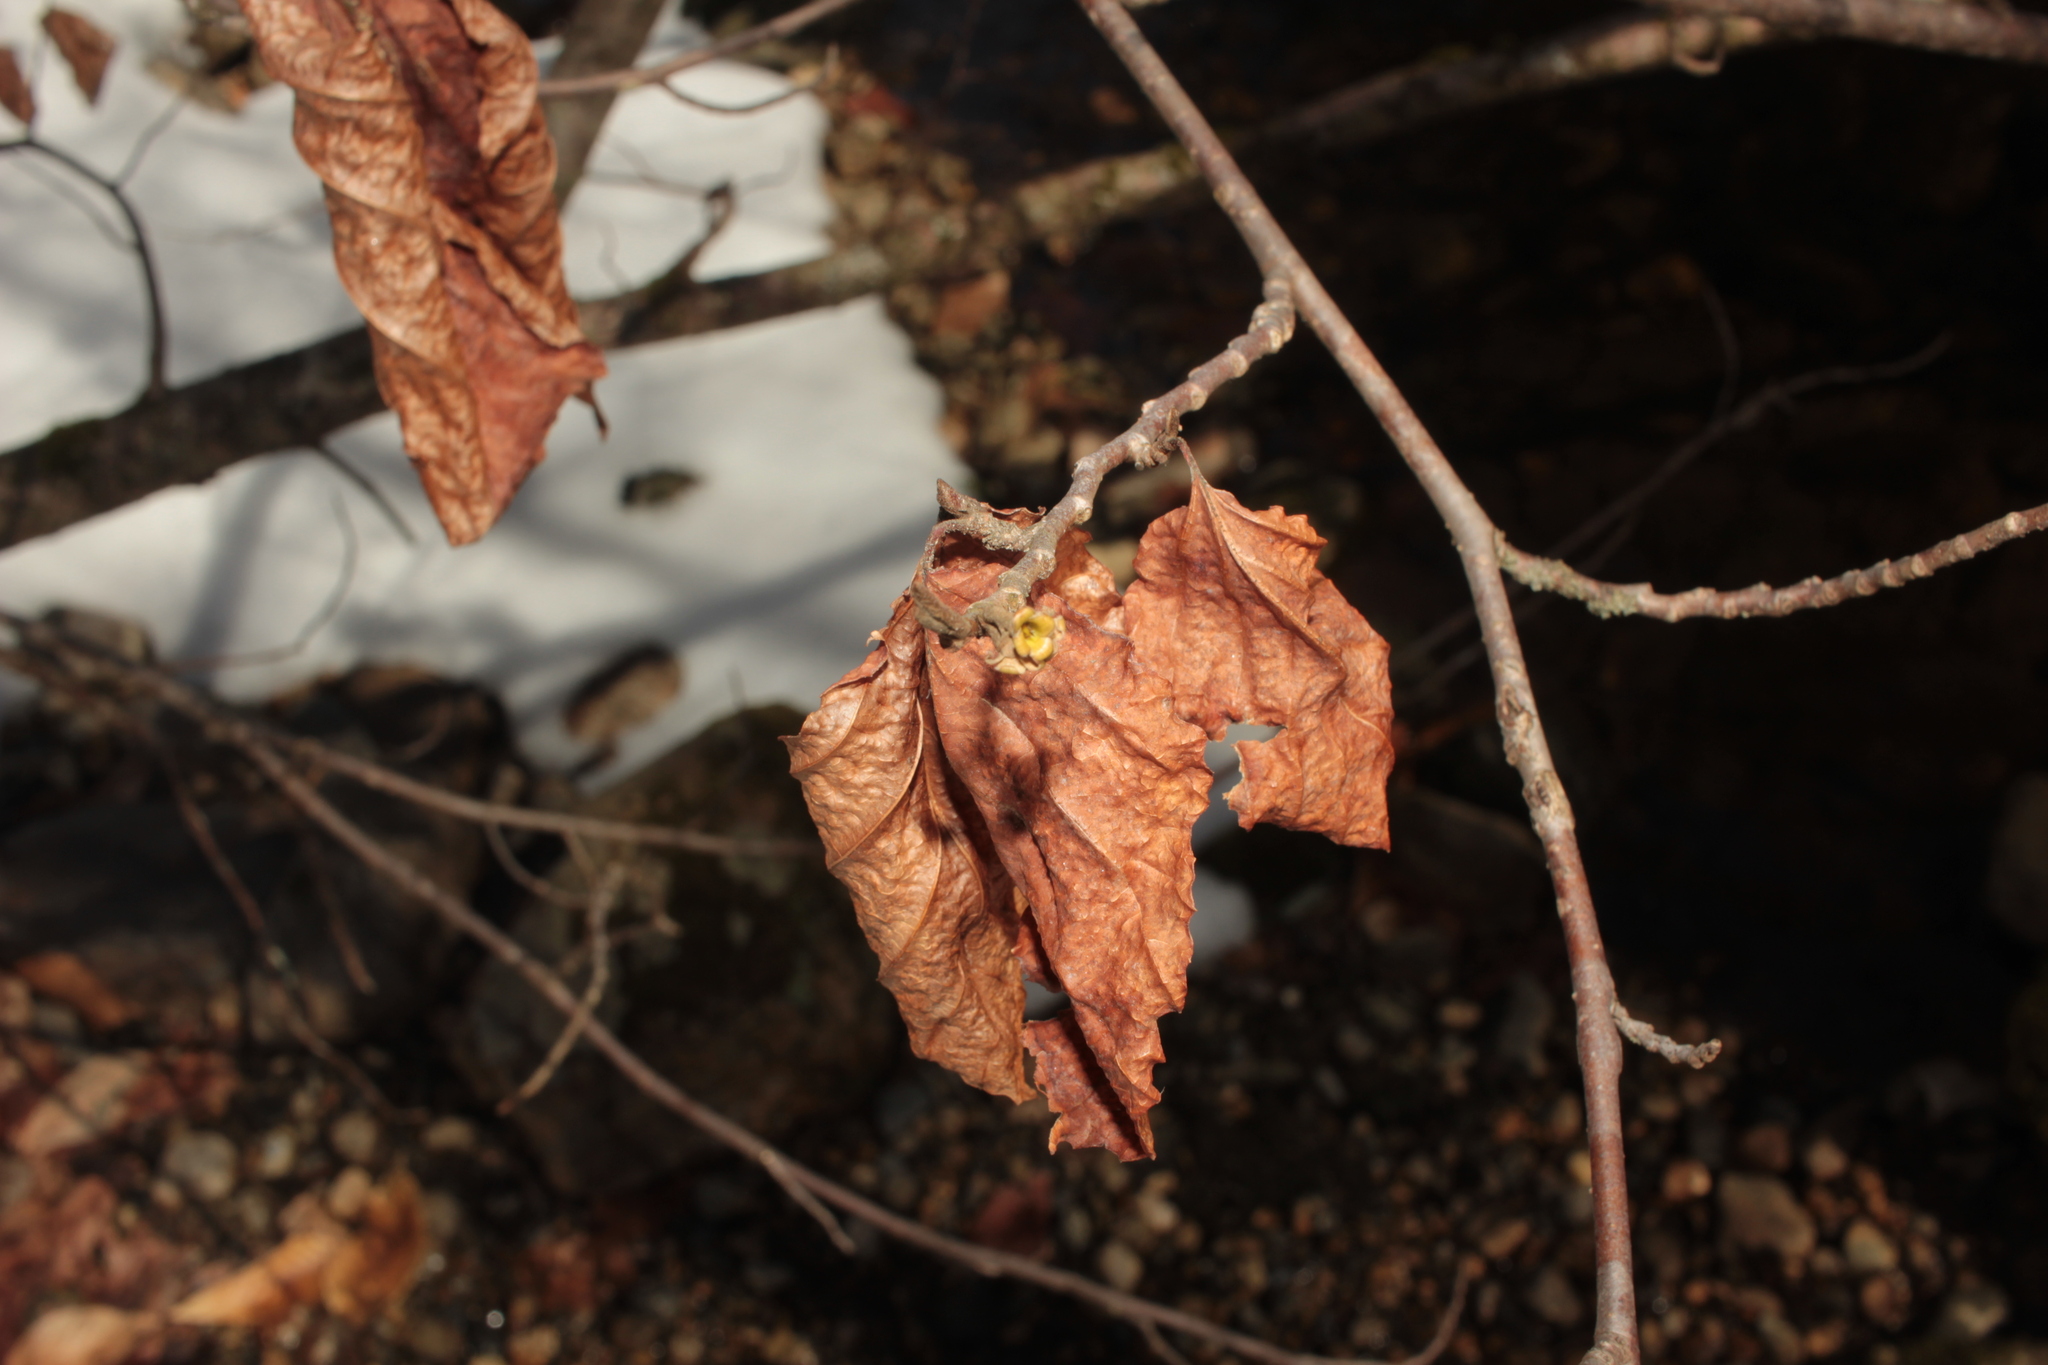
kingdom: Plantae
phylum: Tracheophyta
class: Magnoliopsida
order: Saxifragales
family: Hamamelidaceae
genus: Hamamelis
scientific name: Hamamelis virginiana
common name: Witch-hazel
